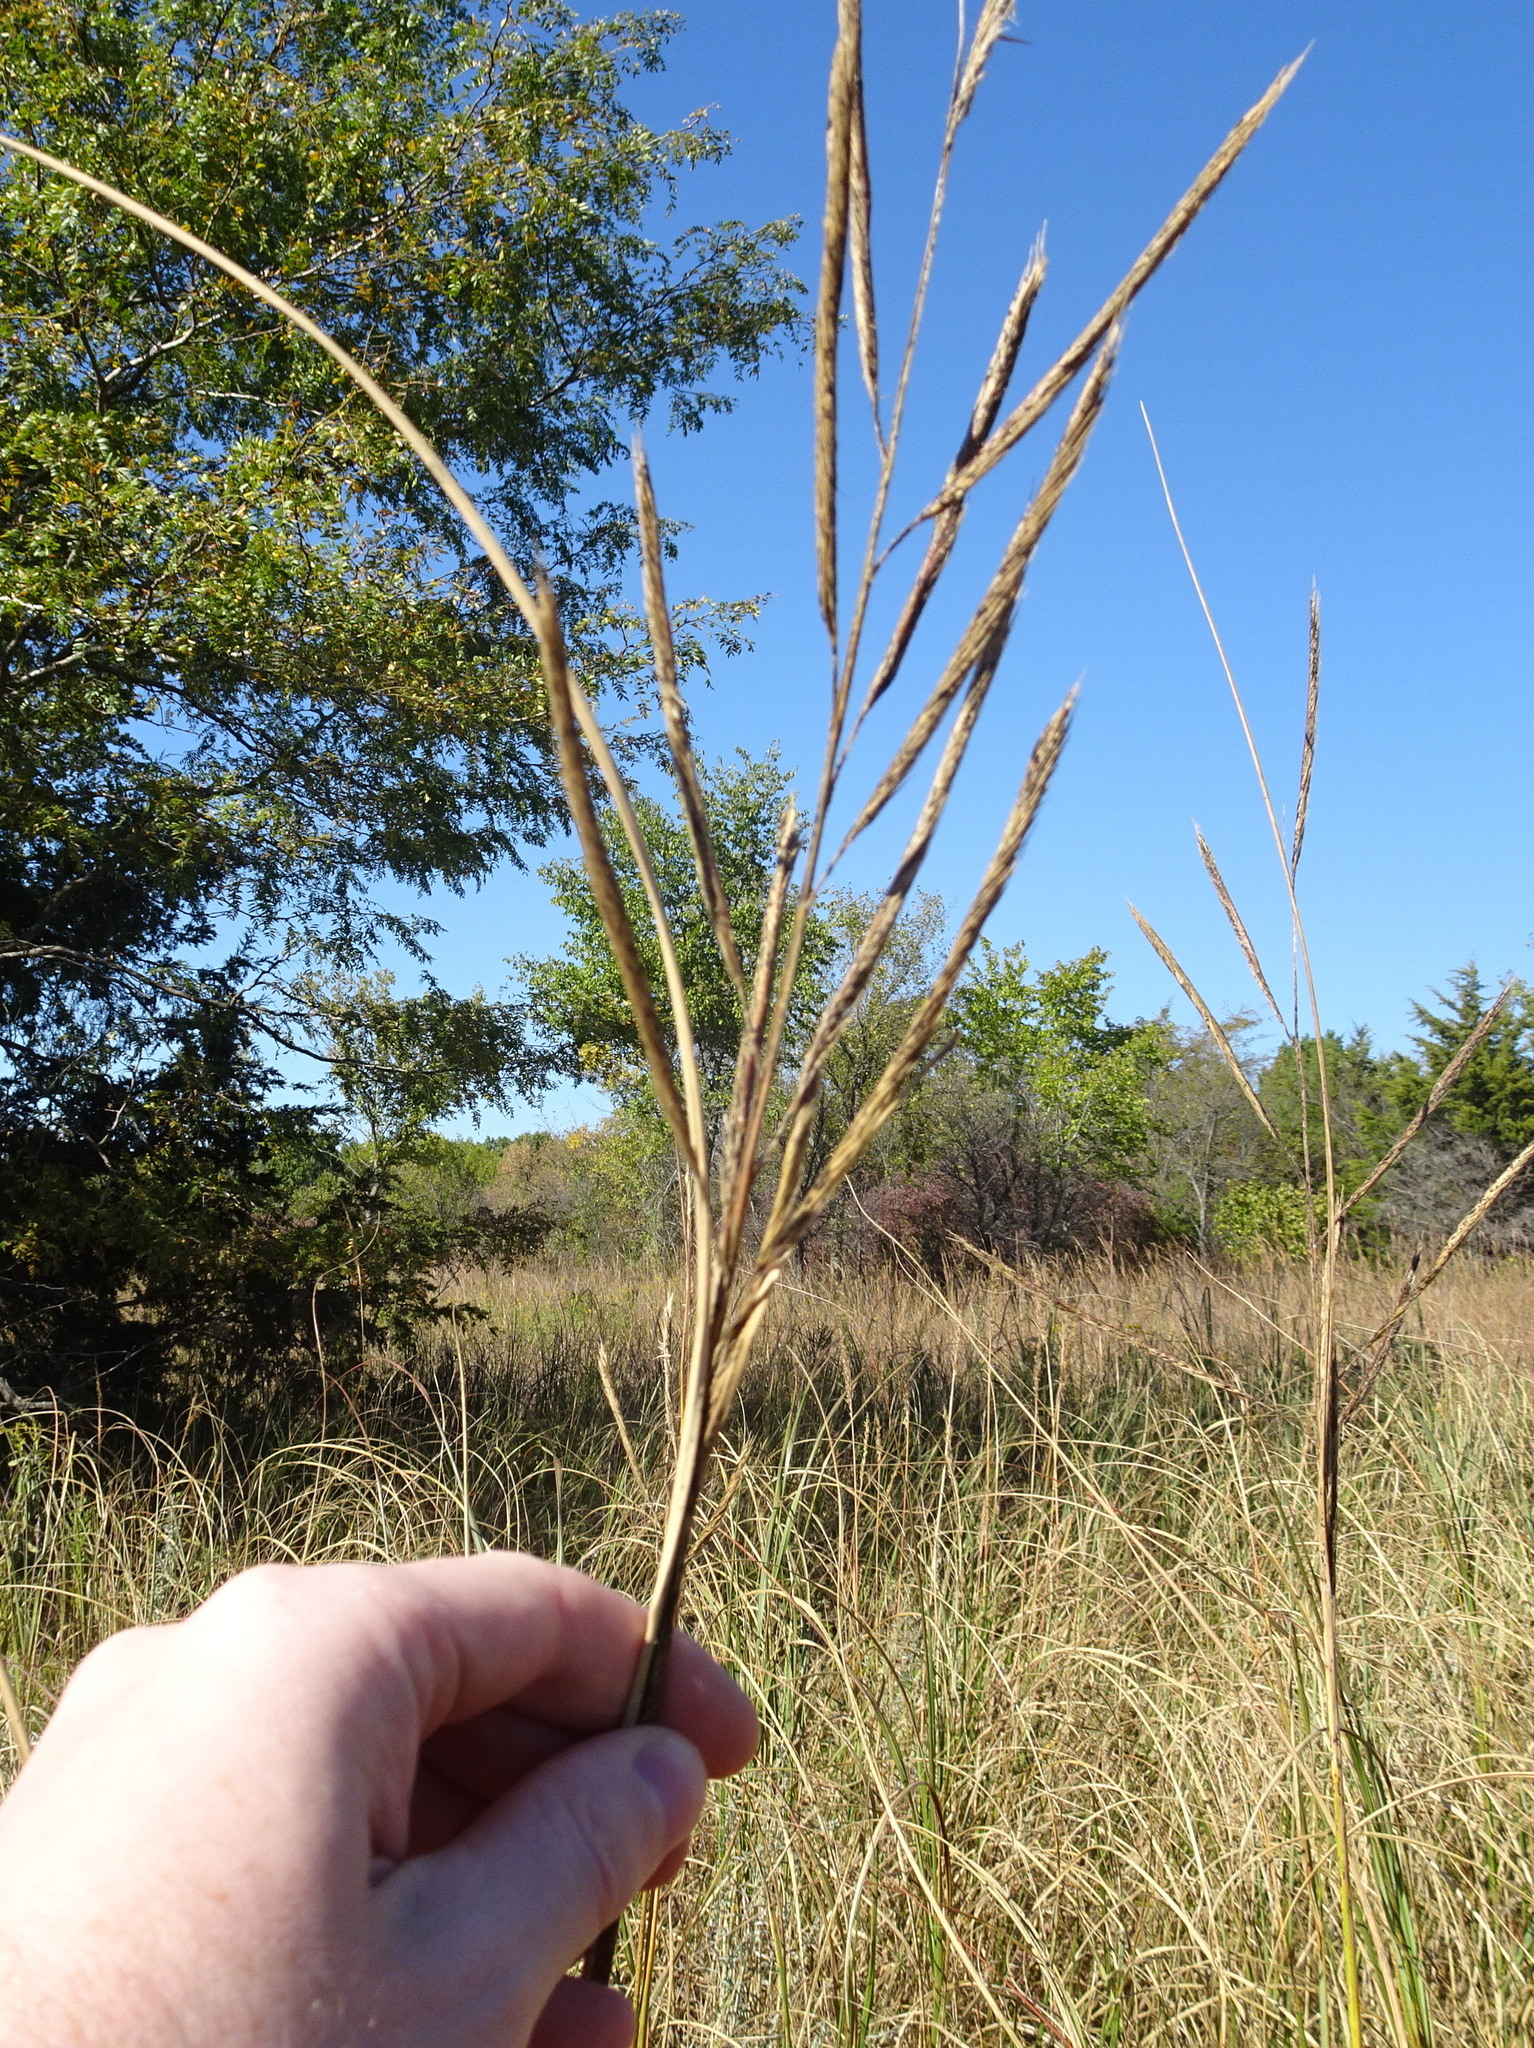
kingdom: Plantae
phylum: Tracheophyta
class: Liliopsida
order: Poales
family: Poaceae
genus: Sporobolus
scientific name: Sporobolus michauxianus
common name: Freshwater cordgrass
